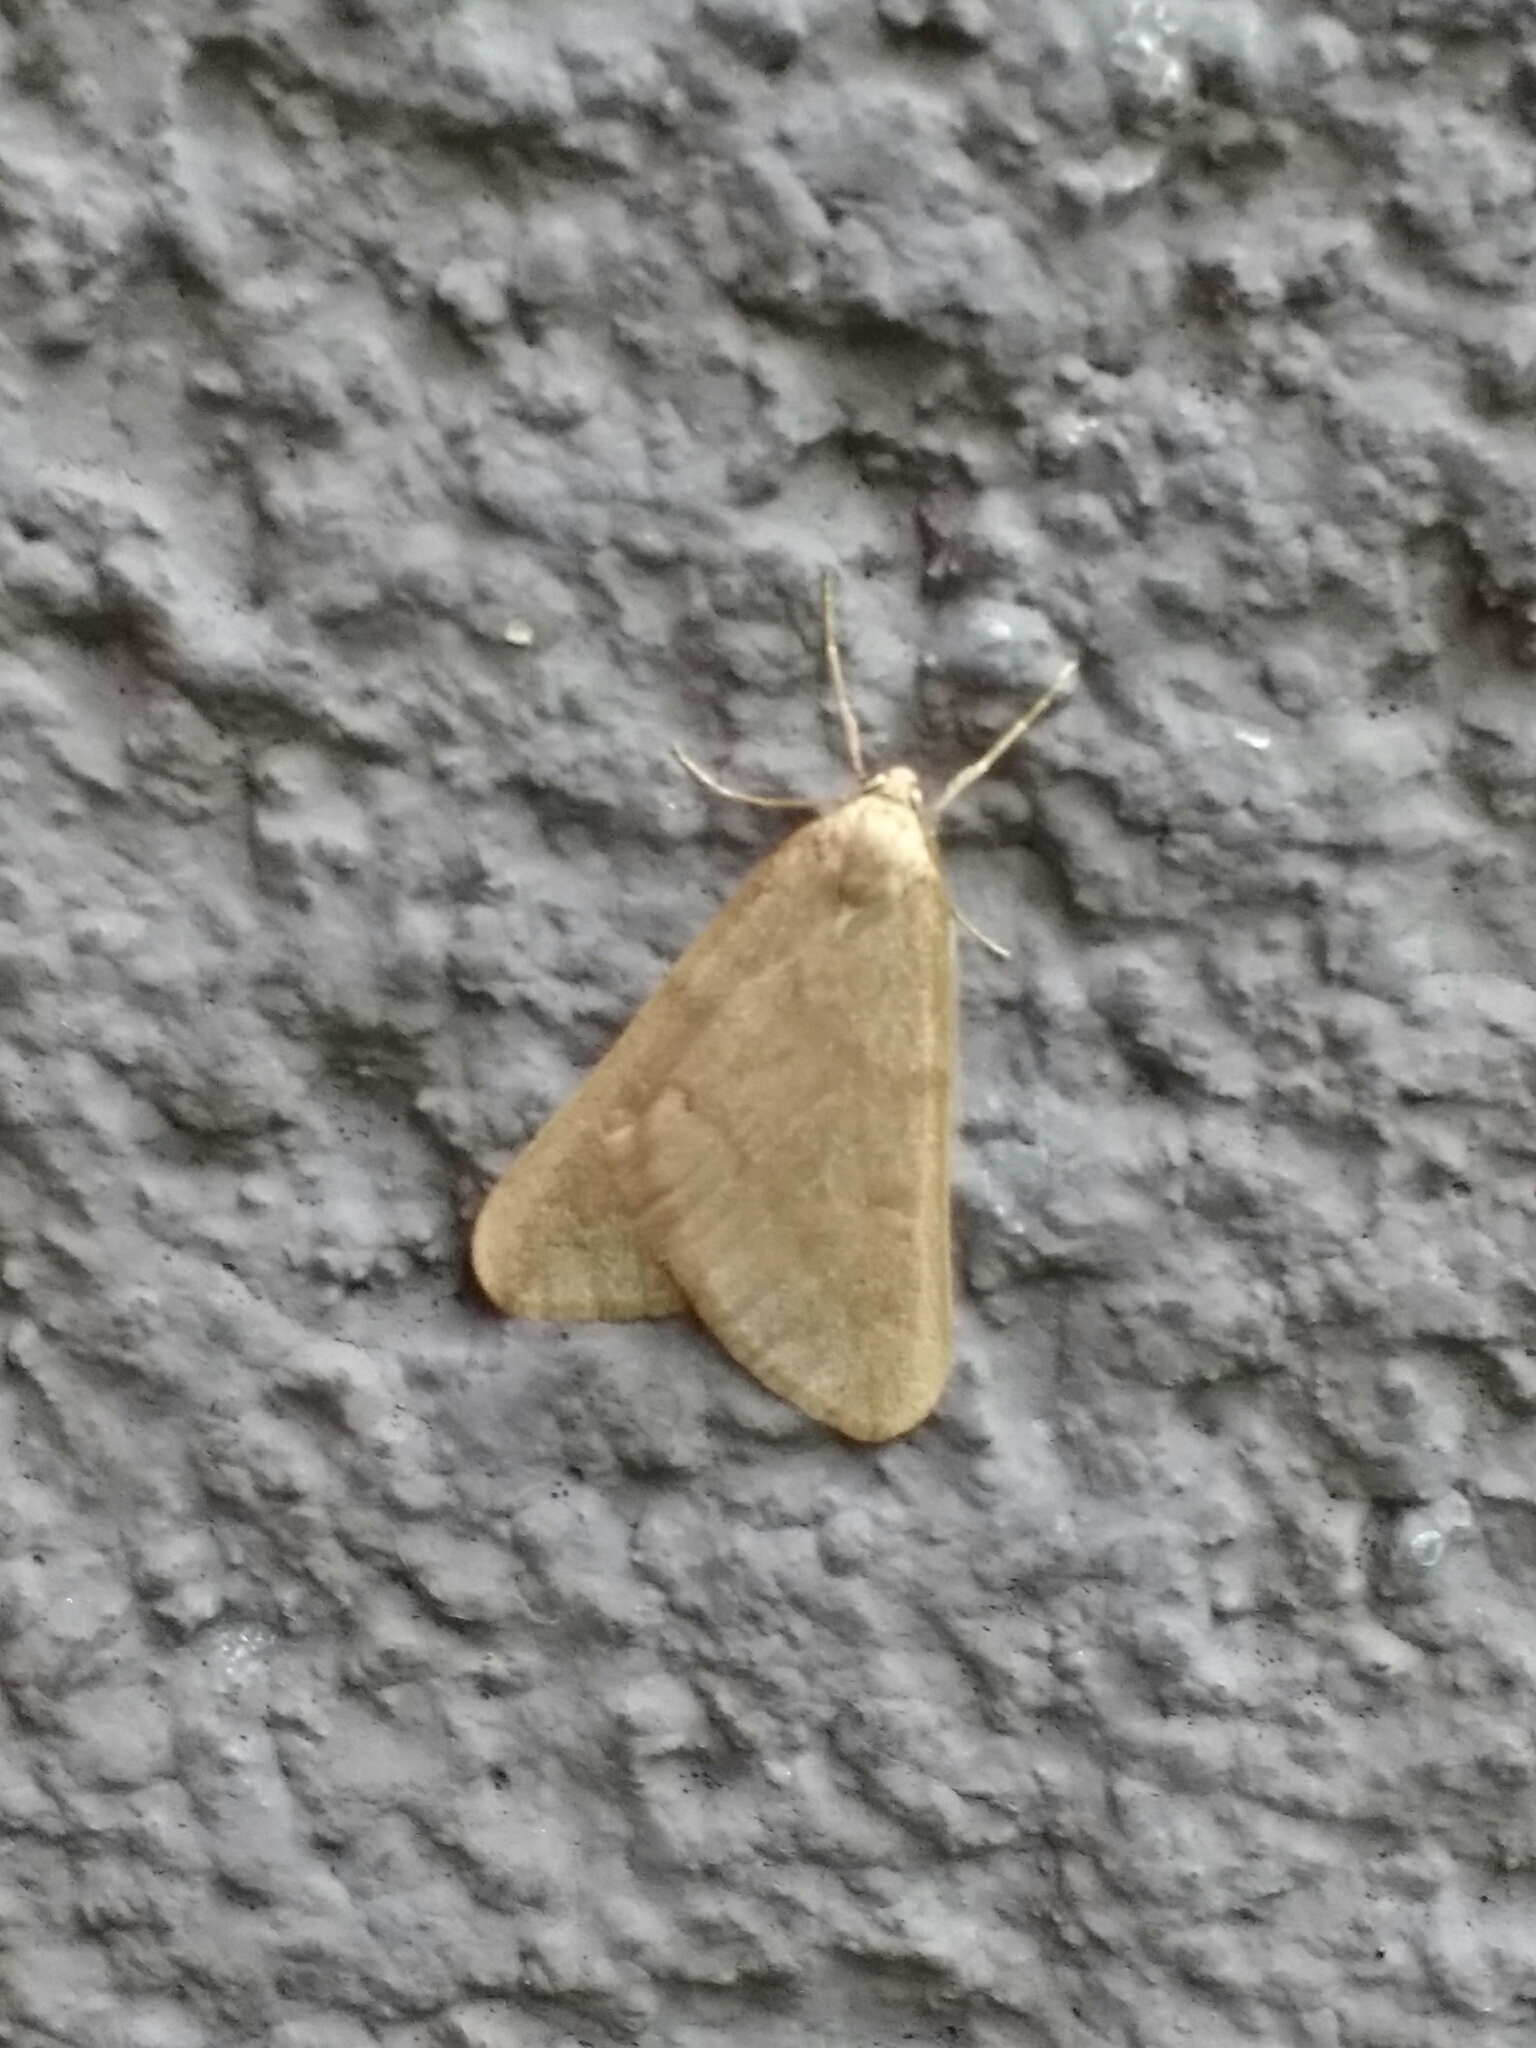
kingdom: Animalia
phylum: Arthropoda
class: Insecta
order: Lepidoptera
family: Geometridae
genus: Alsophila
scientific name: Alsophila aceraria
